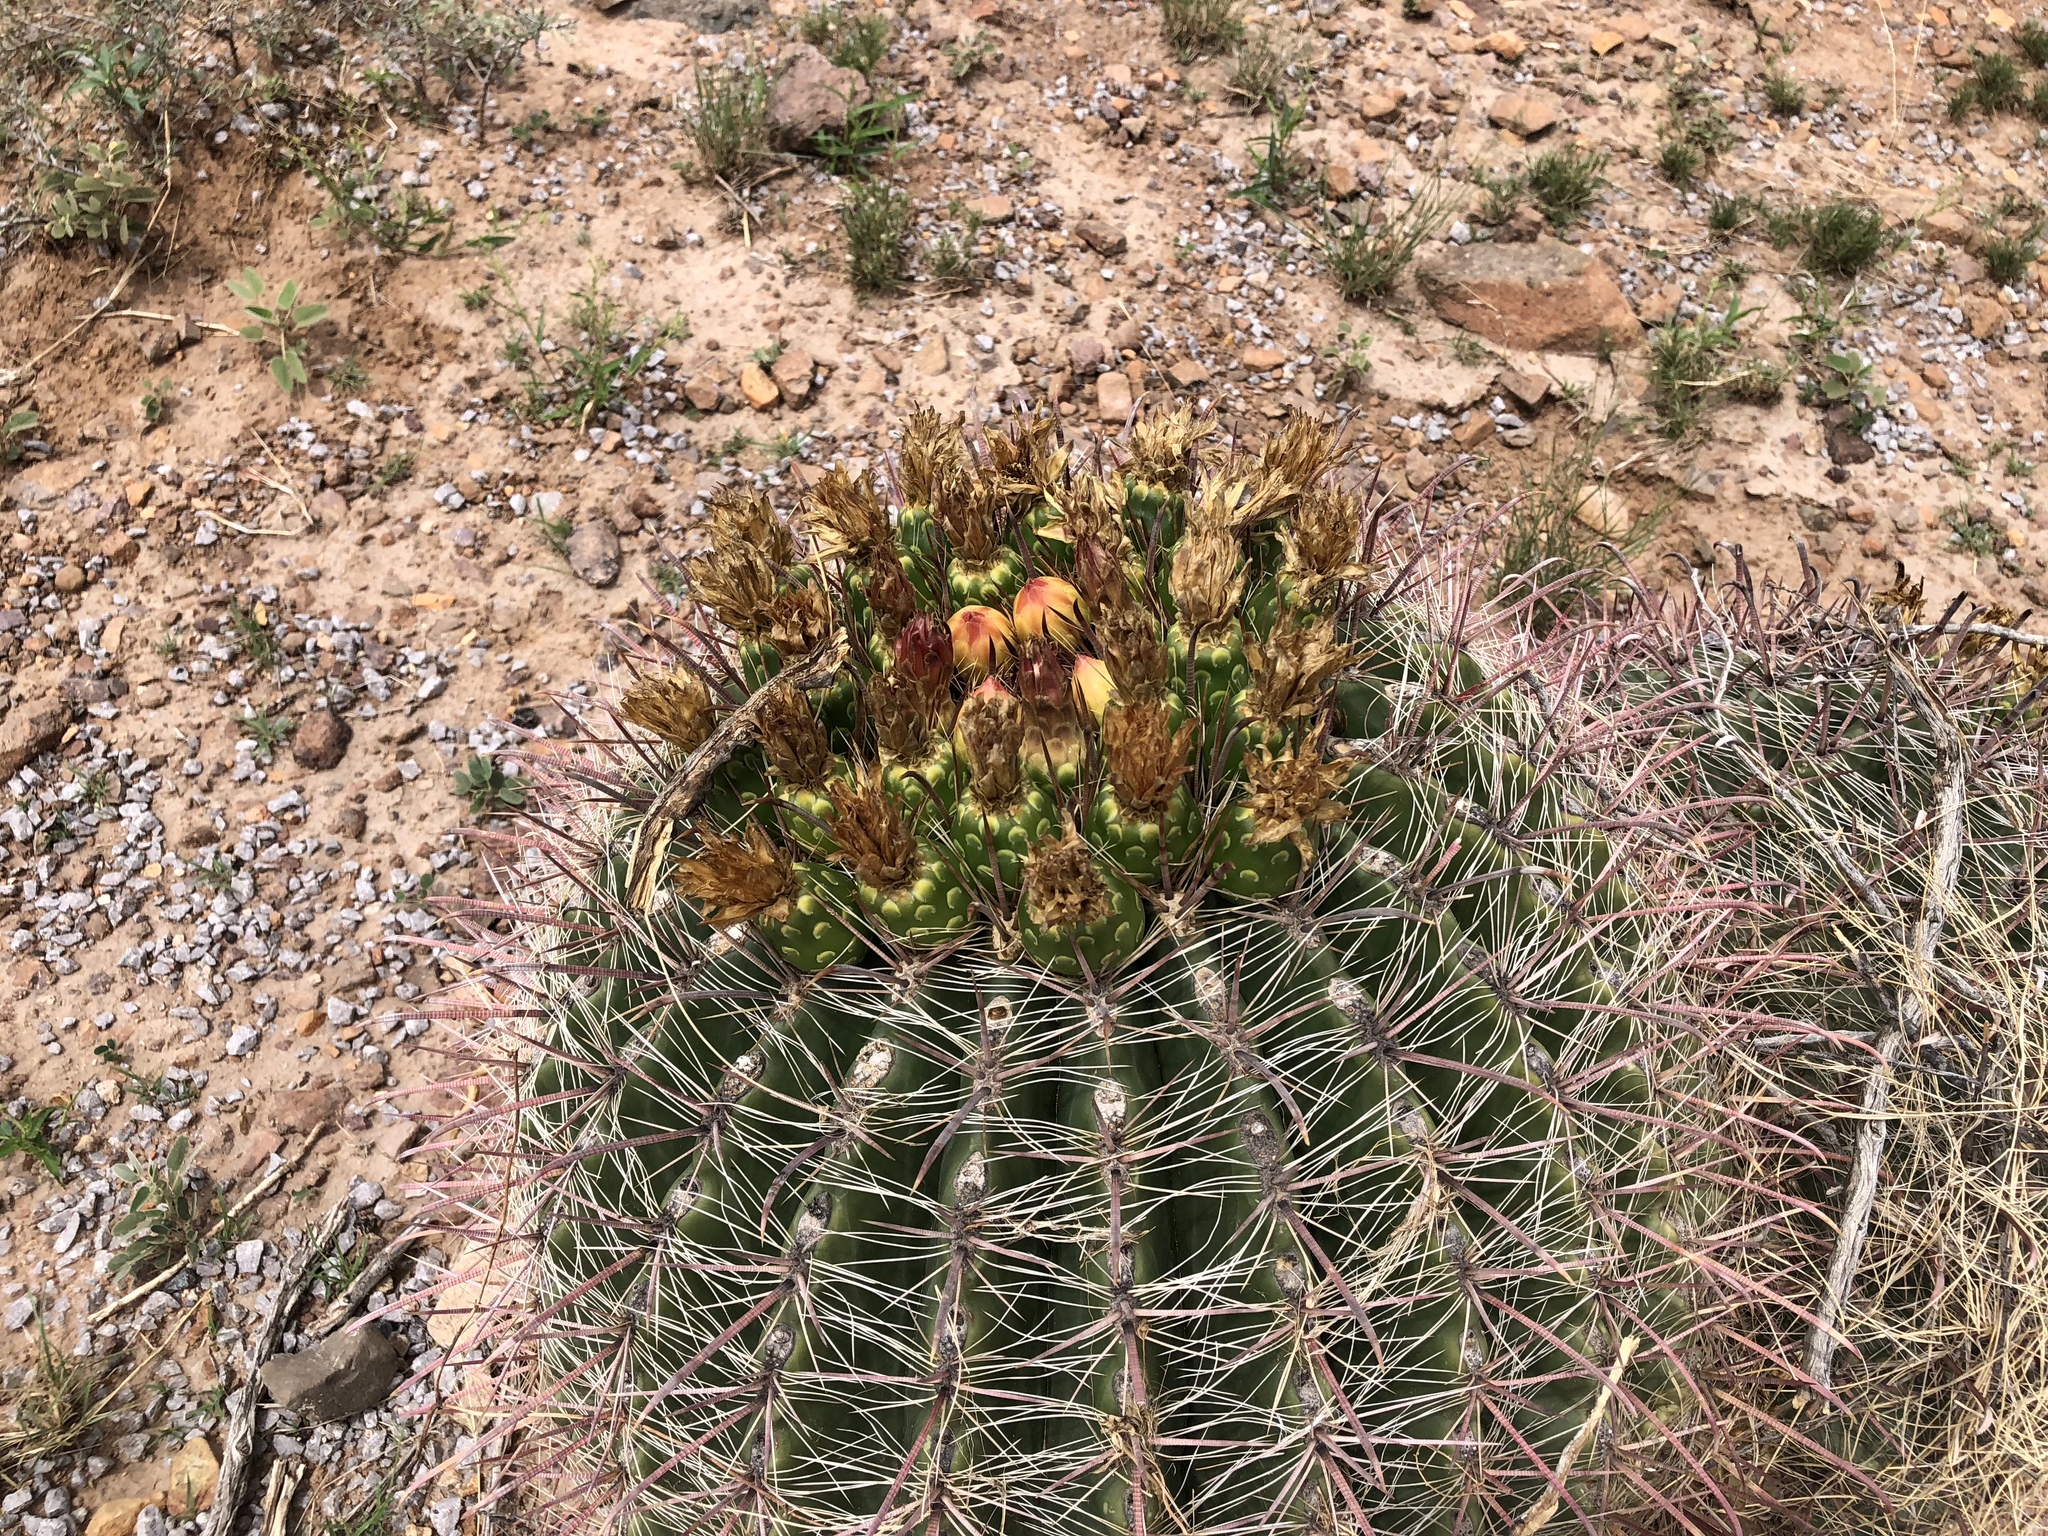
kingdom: Plantae
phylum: Tracheophyta
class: Magnoliopsida
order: Caryophyllales
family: Cactaceae
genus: Ferocactus
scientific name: Ferocactus wislizeni
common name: Candy barrel cactus
